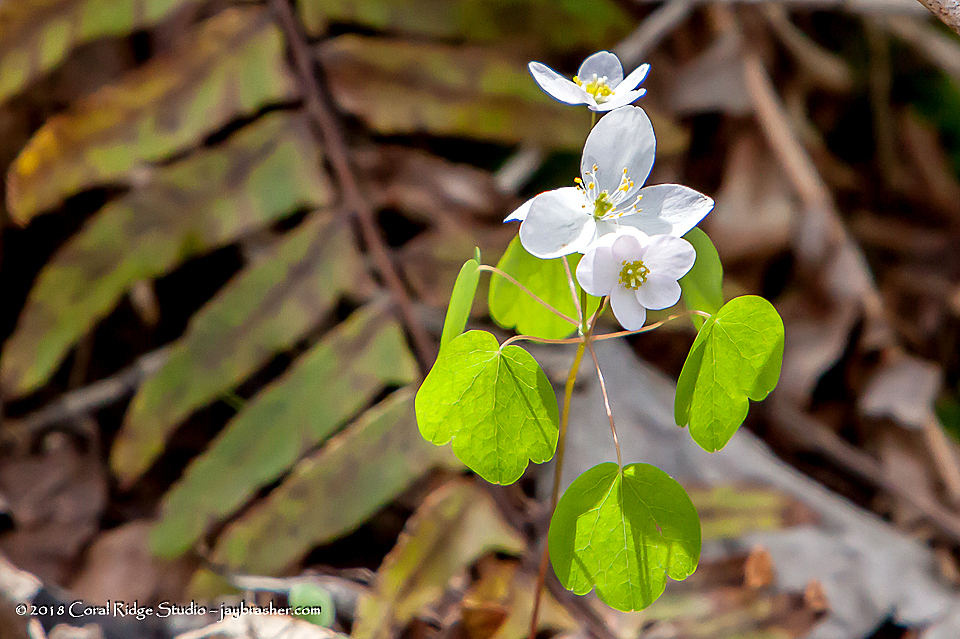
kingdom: Plantae
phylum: Tracheophyta
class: Magnoliopsida
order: Ranunculales
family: Ranunculaceae
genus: Thalictrum
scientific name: Thalictrum thalictroides
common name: Rue-anemone
